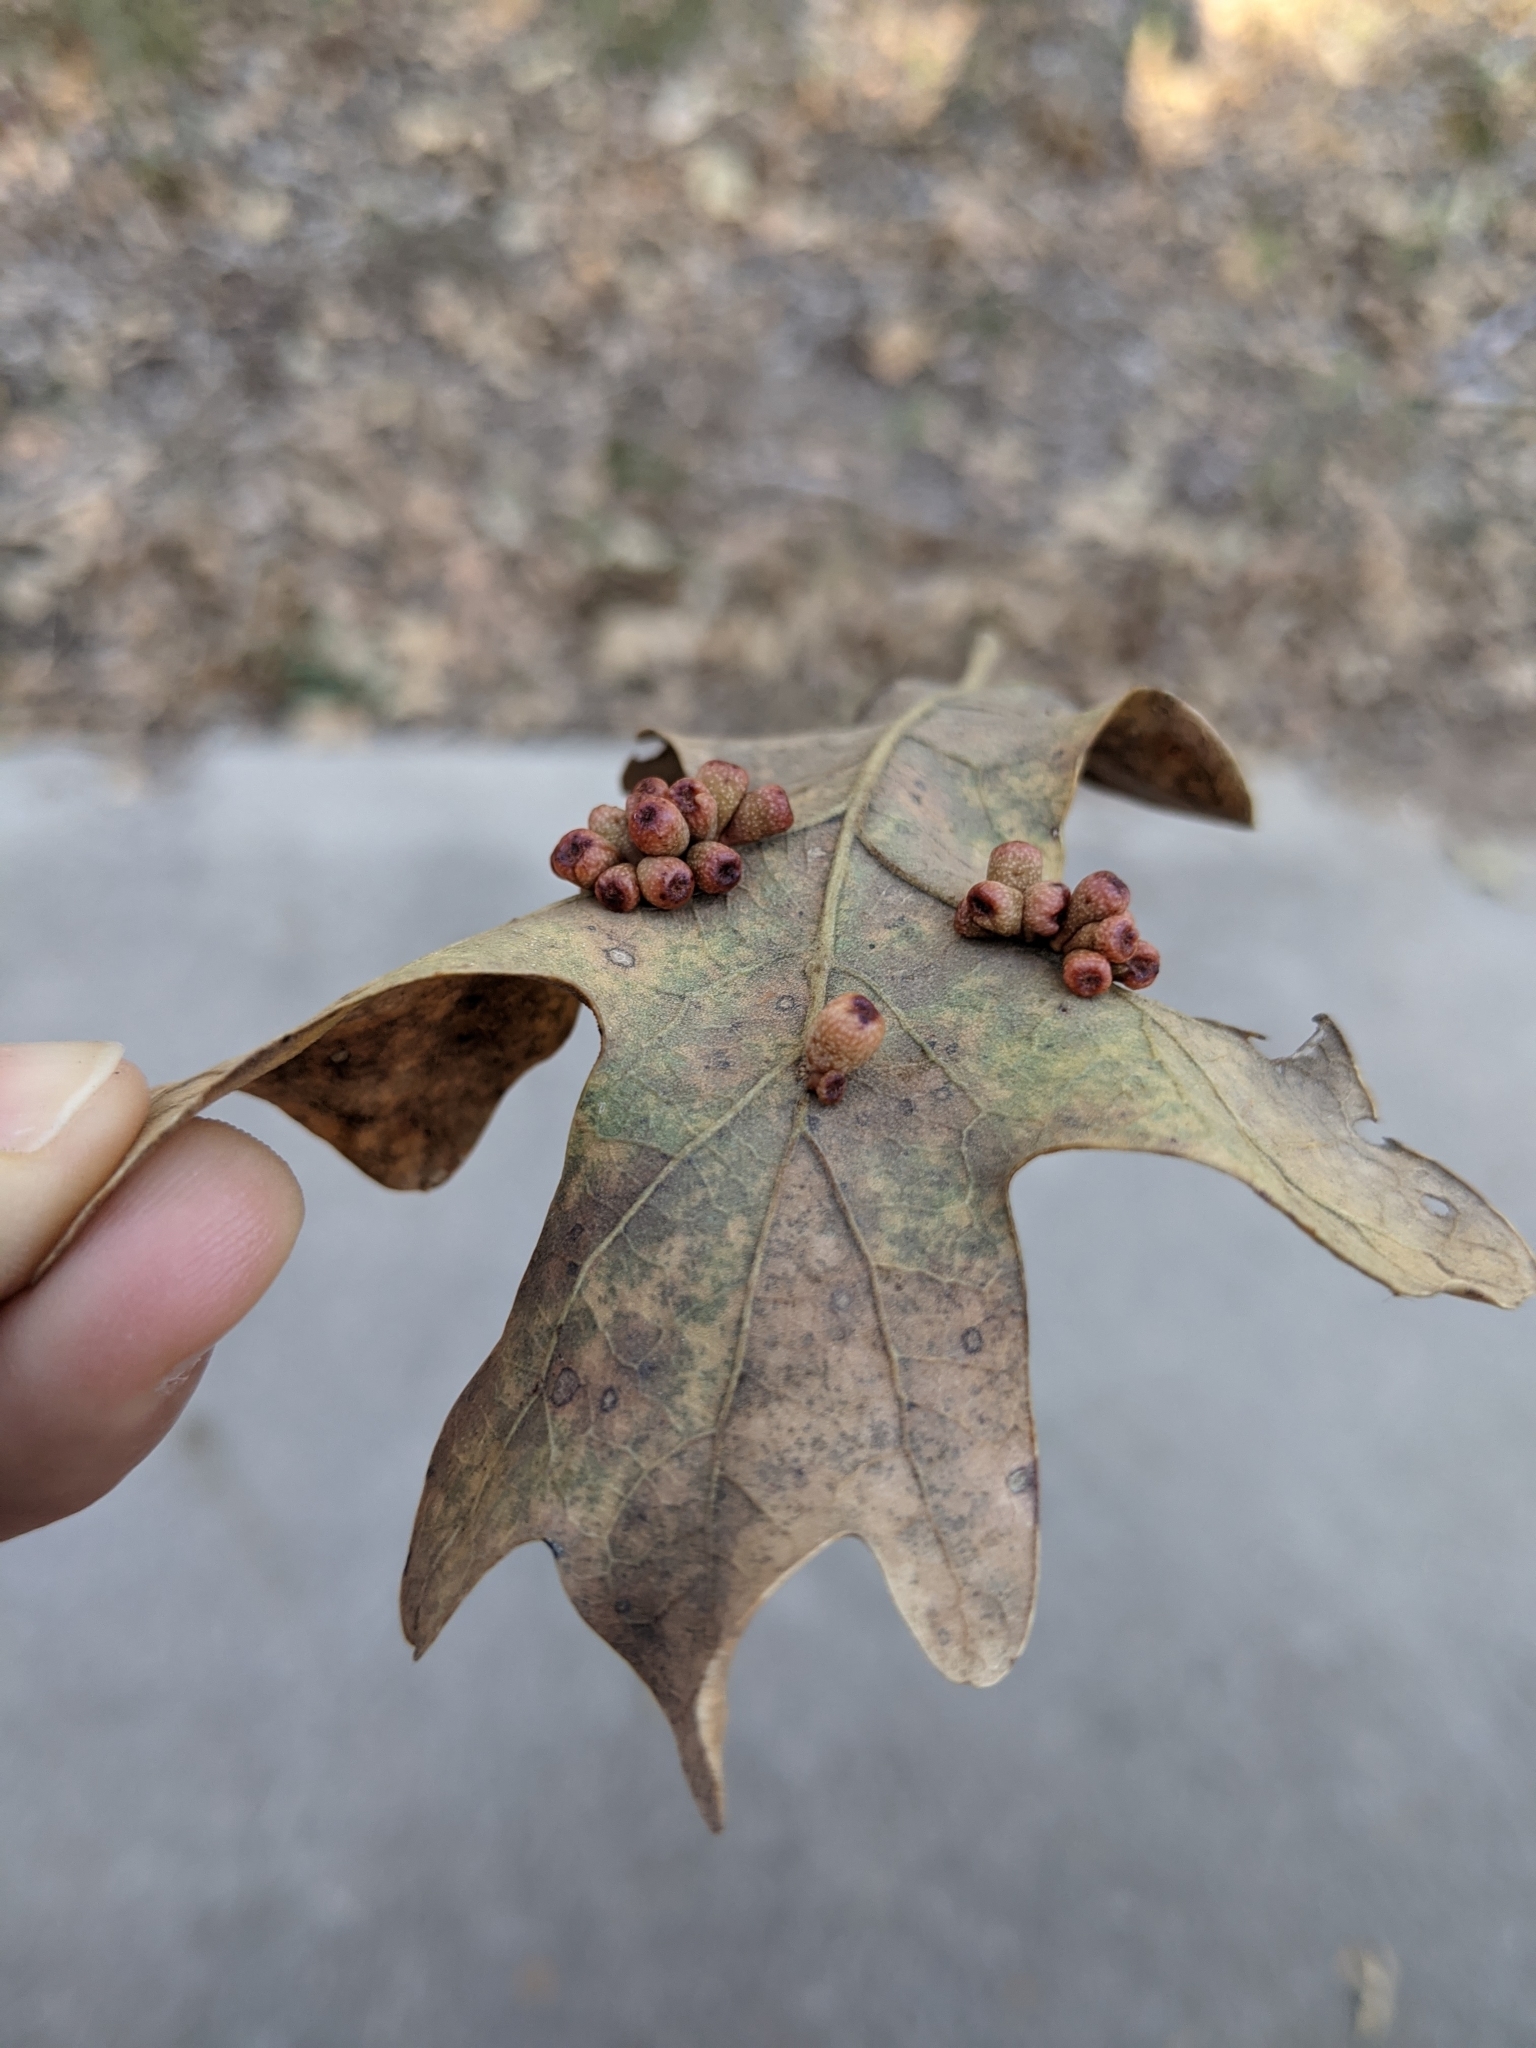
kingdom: Animalia
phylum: Arthropoda
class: Insecta
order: Hymenoptera
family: Cynipidae
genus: Andricus
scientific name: Andricus lustrans
